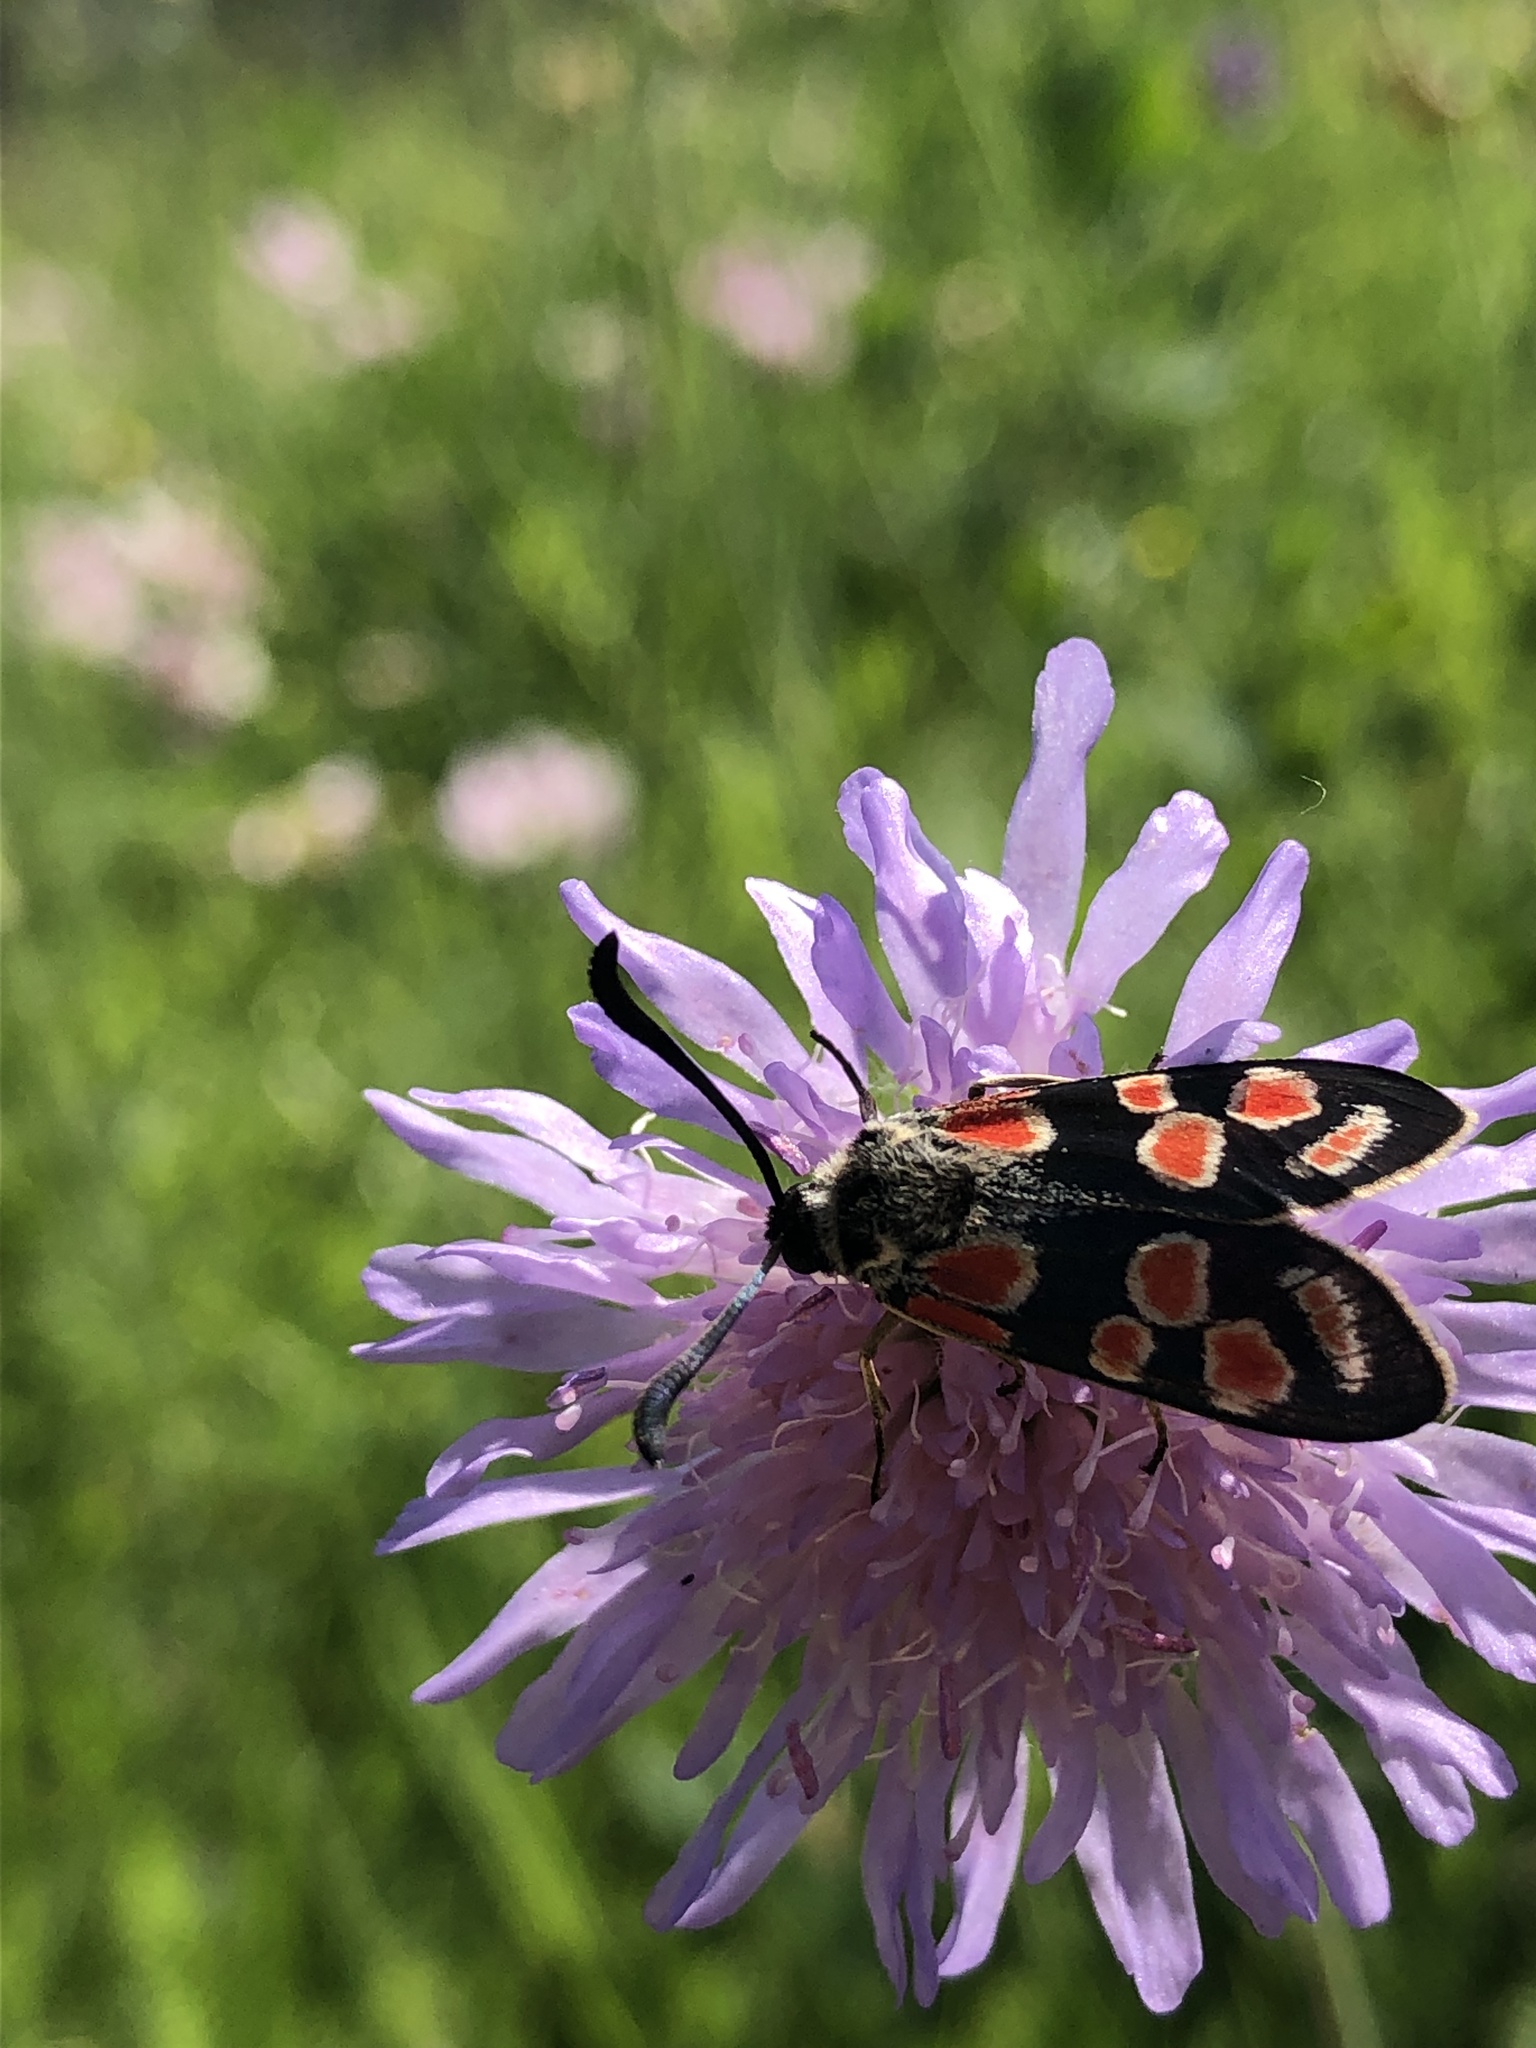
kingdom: Animalia
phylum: Arthropoda
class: Insecta
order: Lepidoptera
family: Zygaenidae
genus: Zygaena
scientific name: Zygaena carniolica
